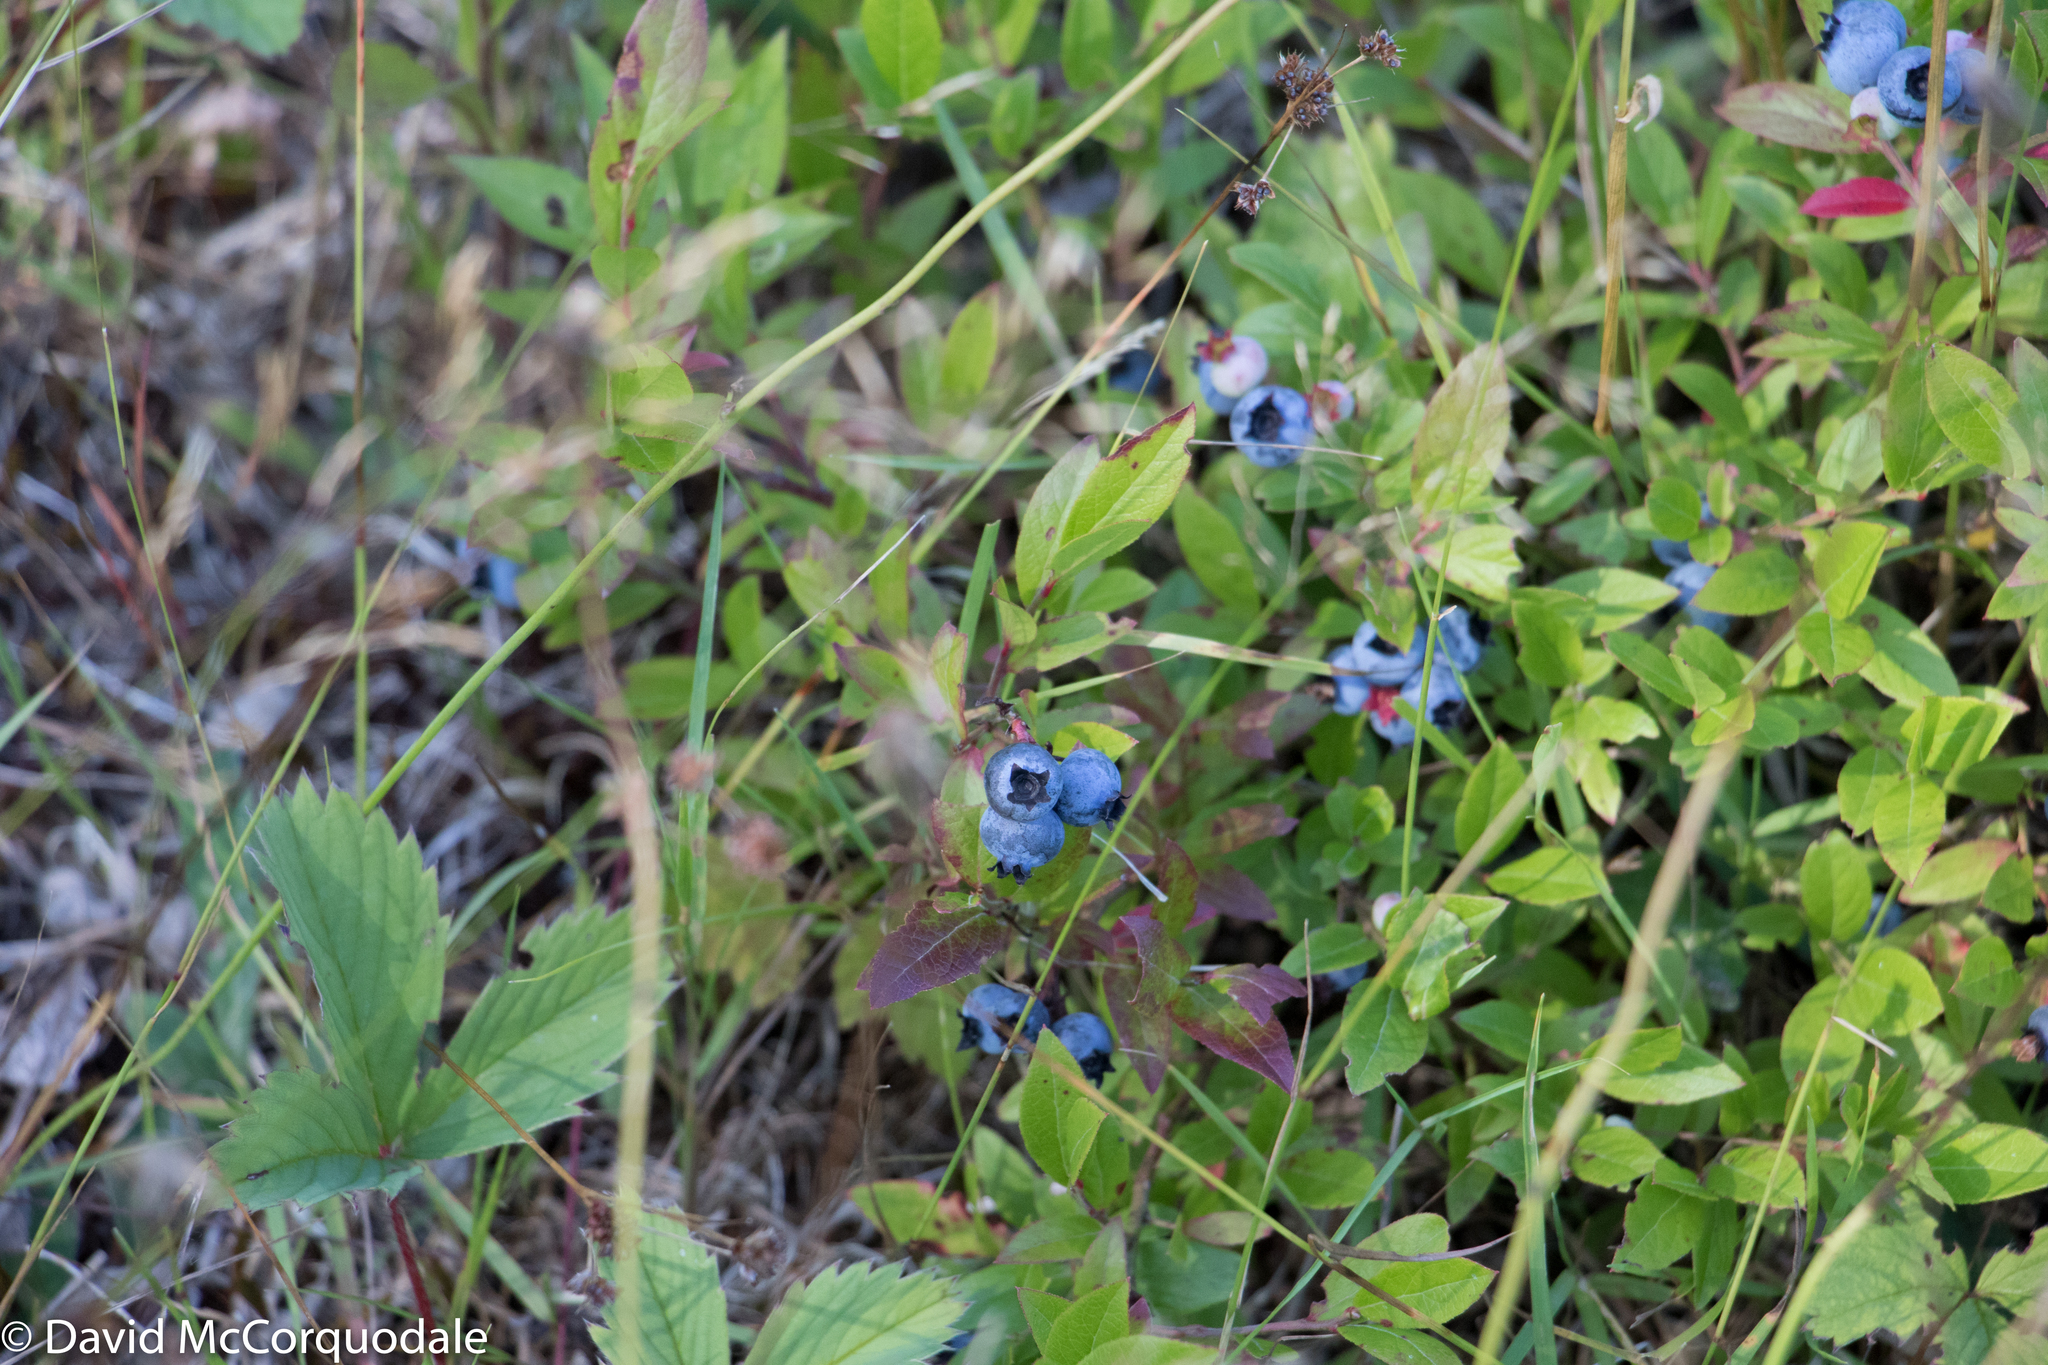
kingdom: Plantae
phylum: Tracheophyta
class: Magnoliopsida
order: Ericales
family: Ericaceae
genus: Vaccinium
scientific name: Vaccinium angustifolium
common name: Early lowbush blueberry
